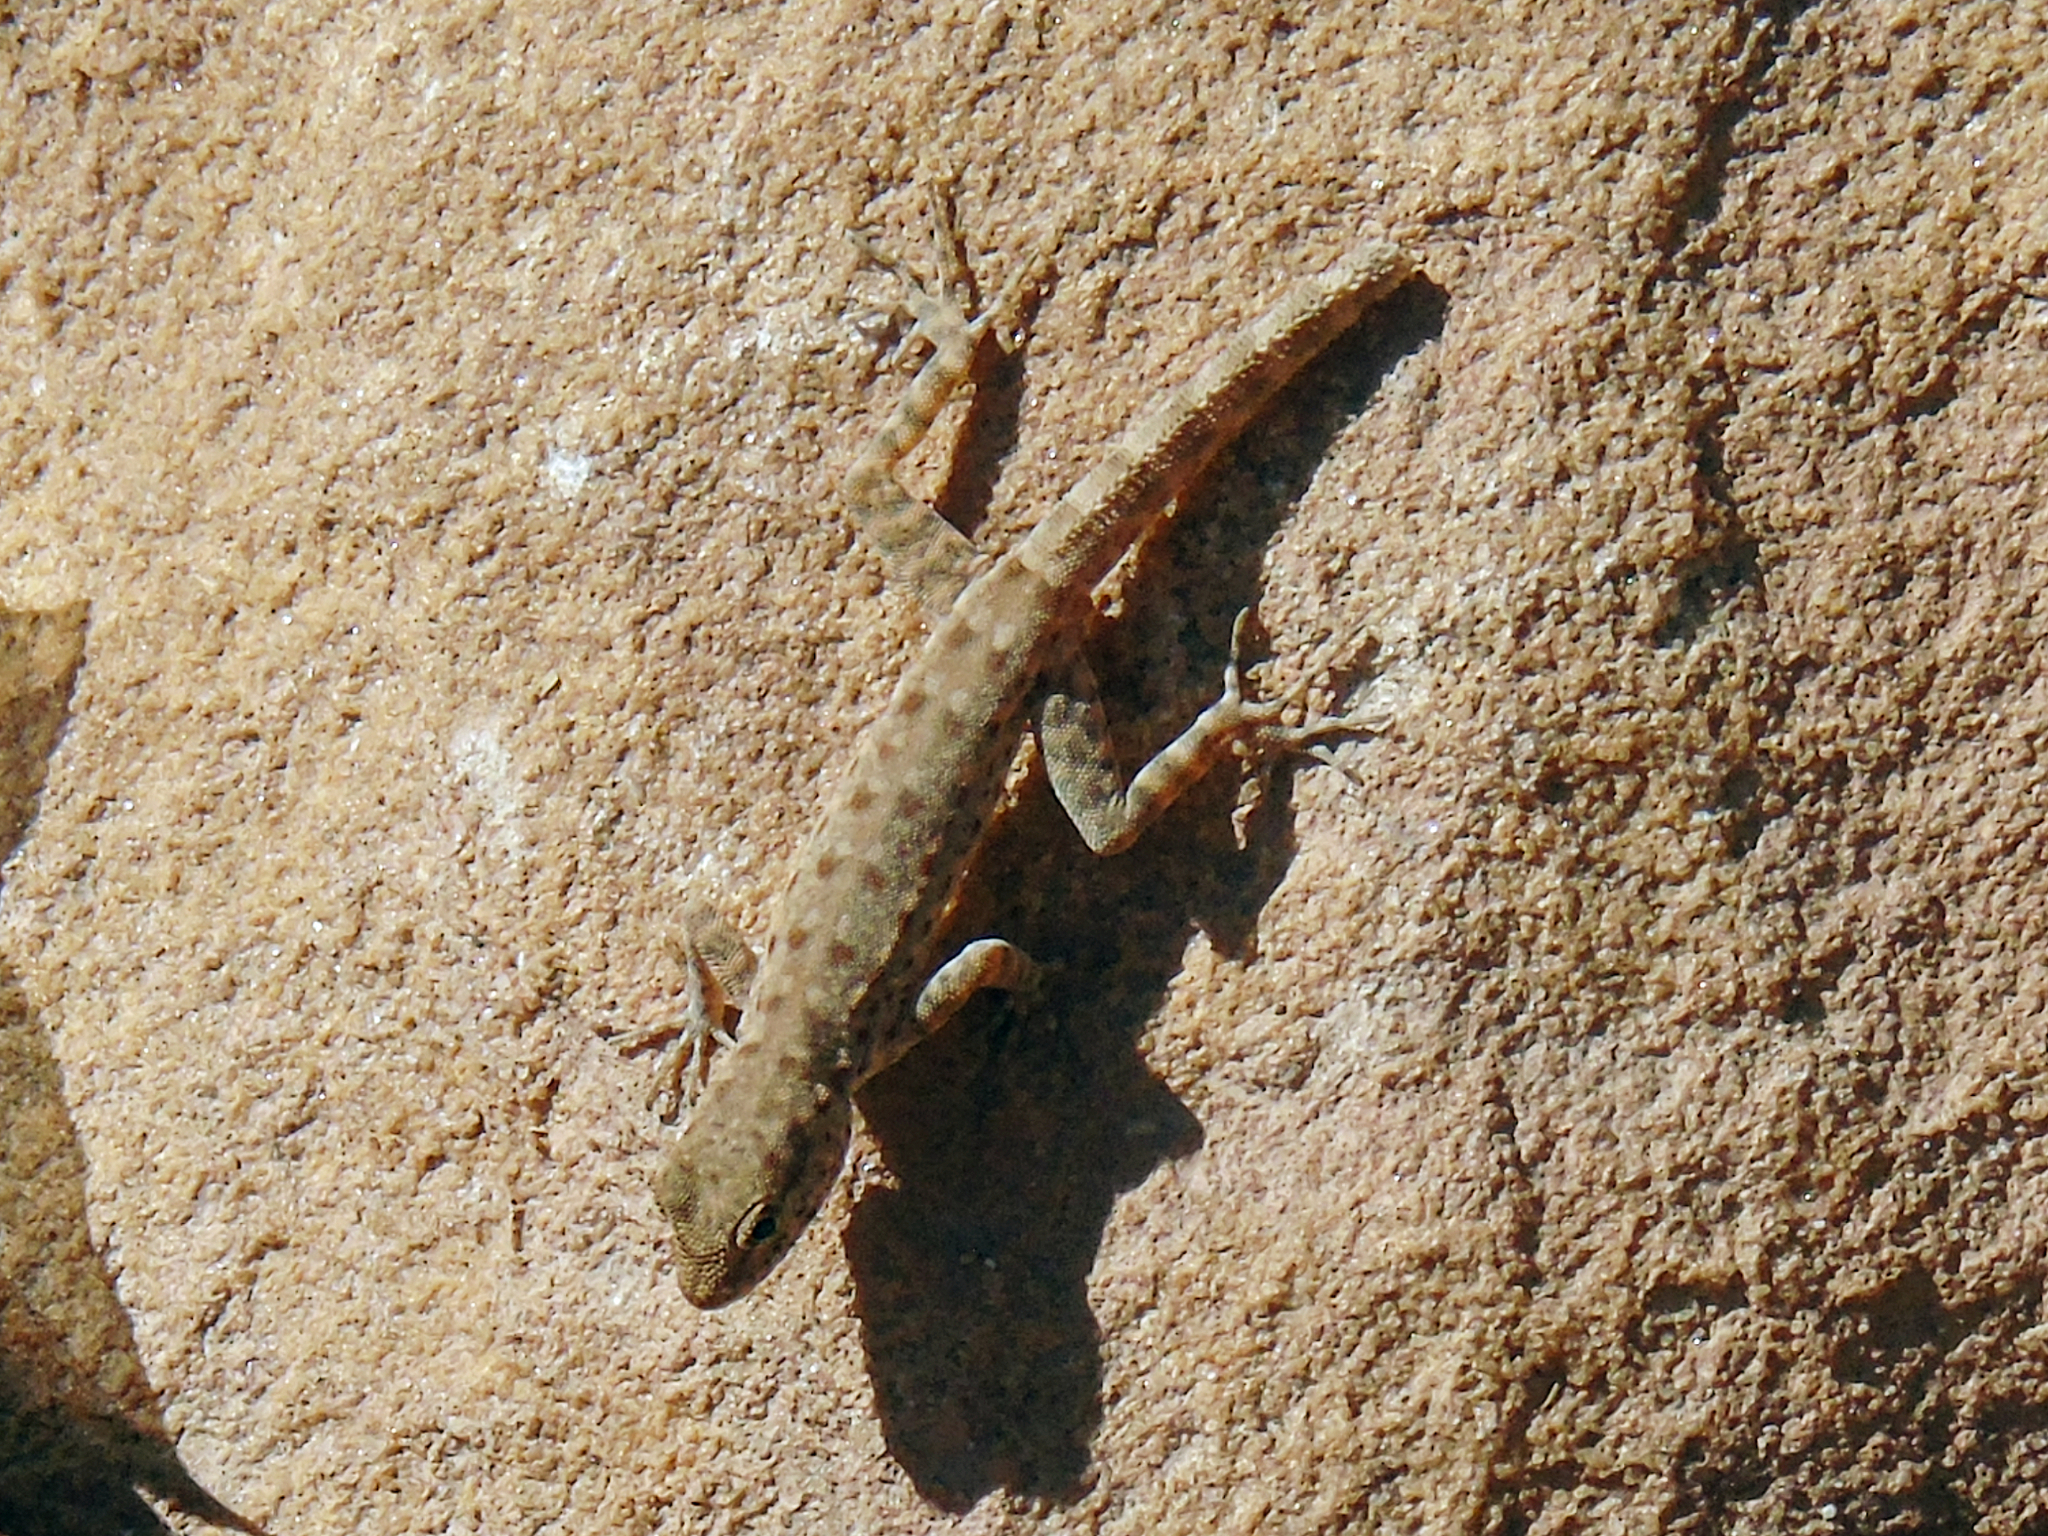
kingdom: Animalia
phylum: Chordata
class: Squamata
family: Sphaerodactylidae
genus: Pristurus
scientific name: Pristurus rupestris
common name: Blanford’s semaphore gecko
